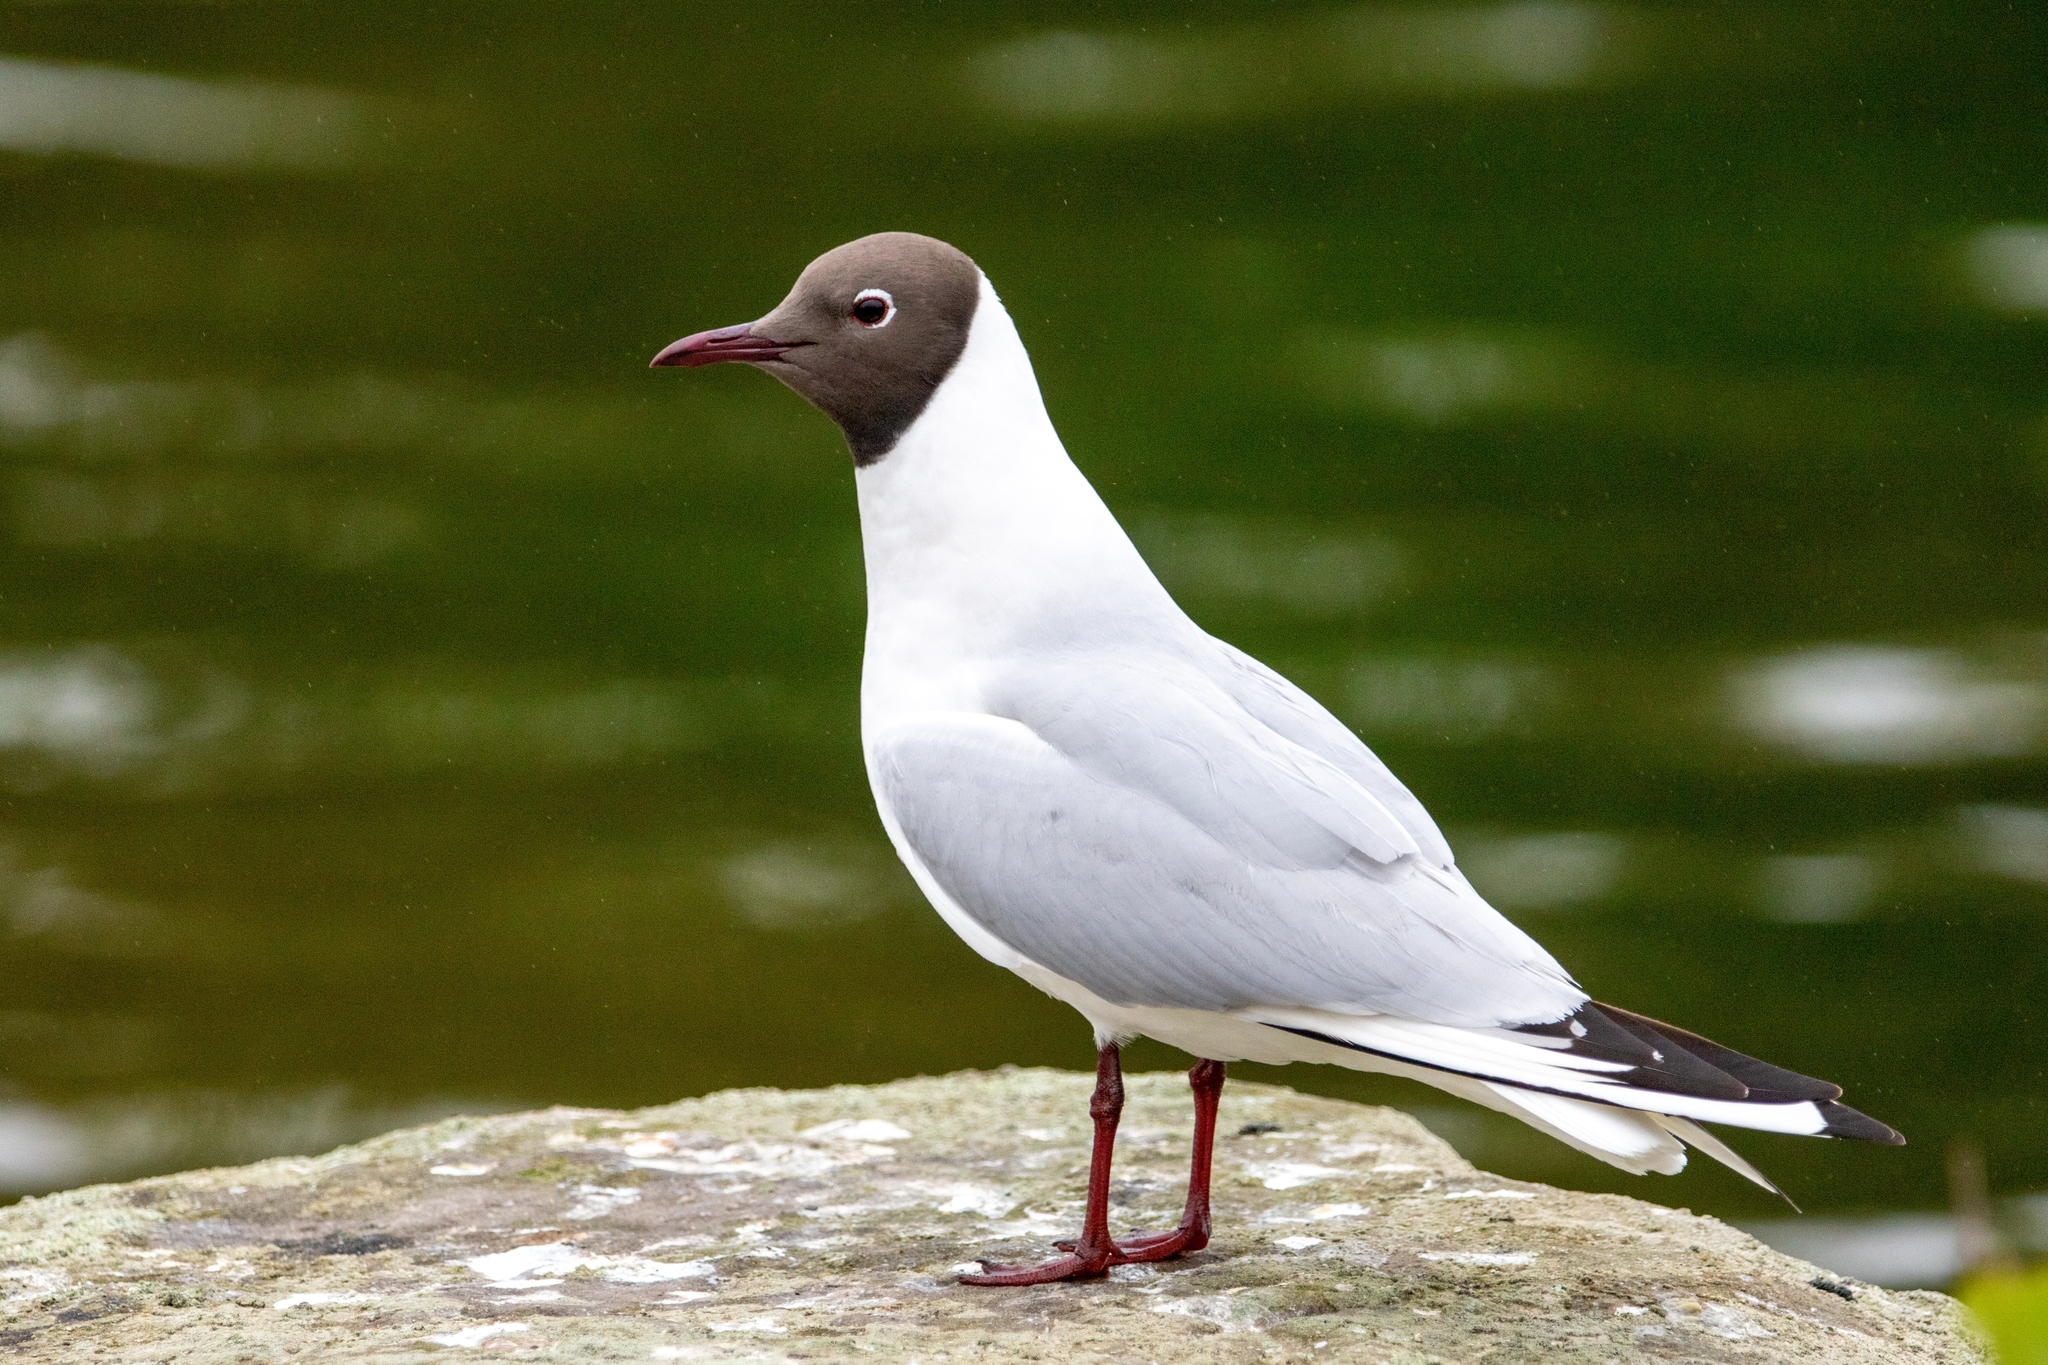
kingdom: Animalia
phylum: Chordata
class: Aves
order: Charadriiformes
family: Laridae
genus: Chroicocephalus
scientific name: Chroicocephalus ridibundus
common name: Black-headed gull
